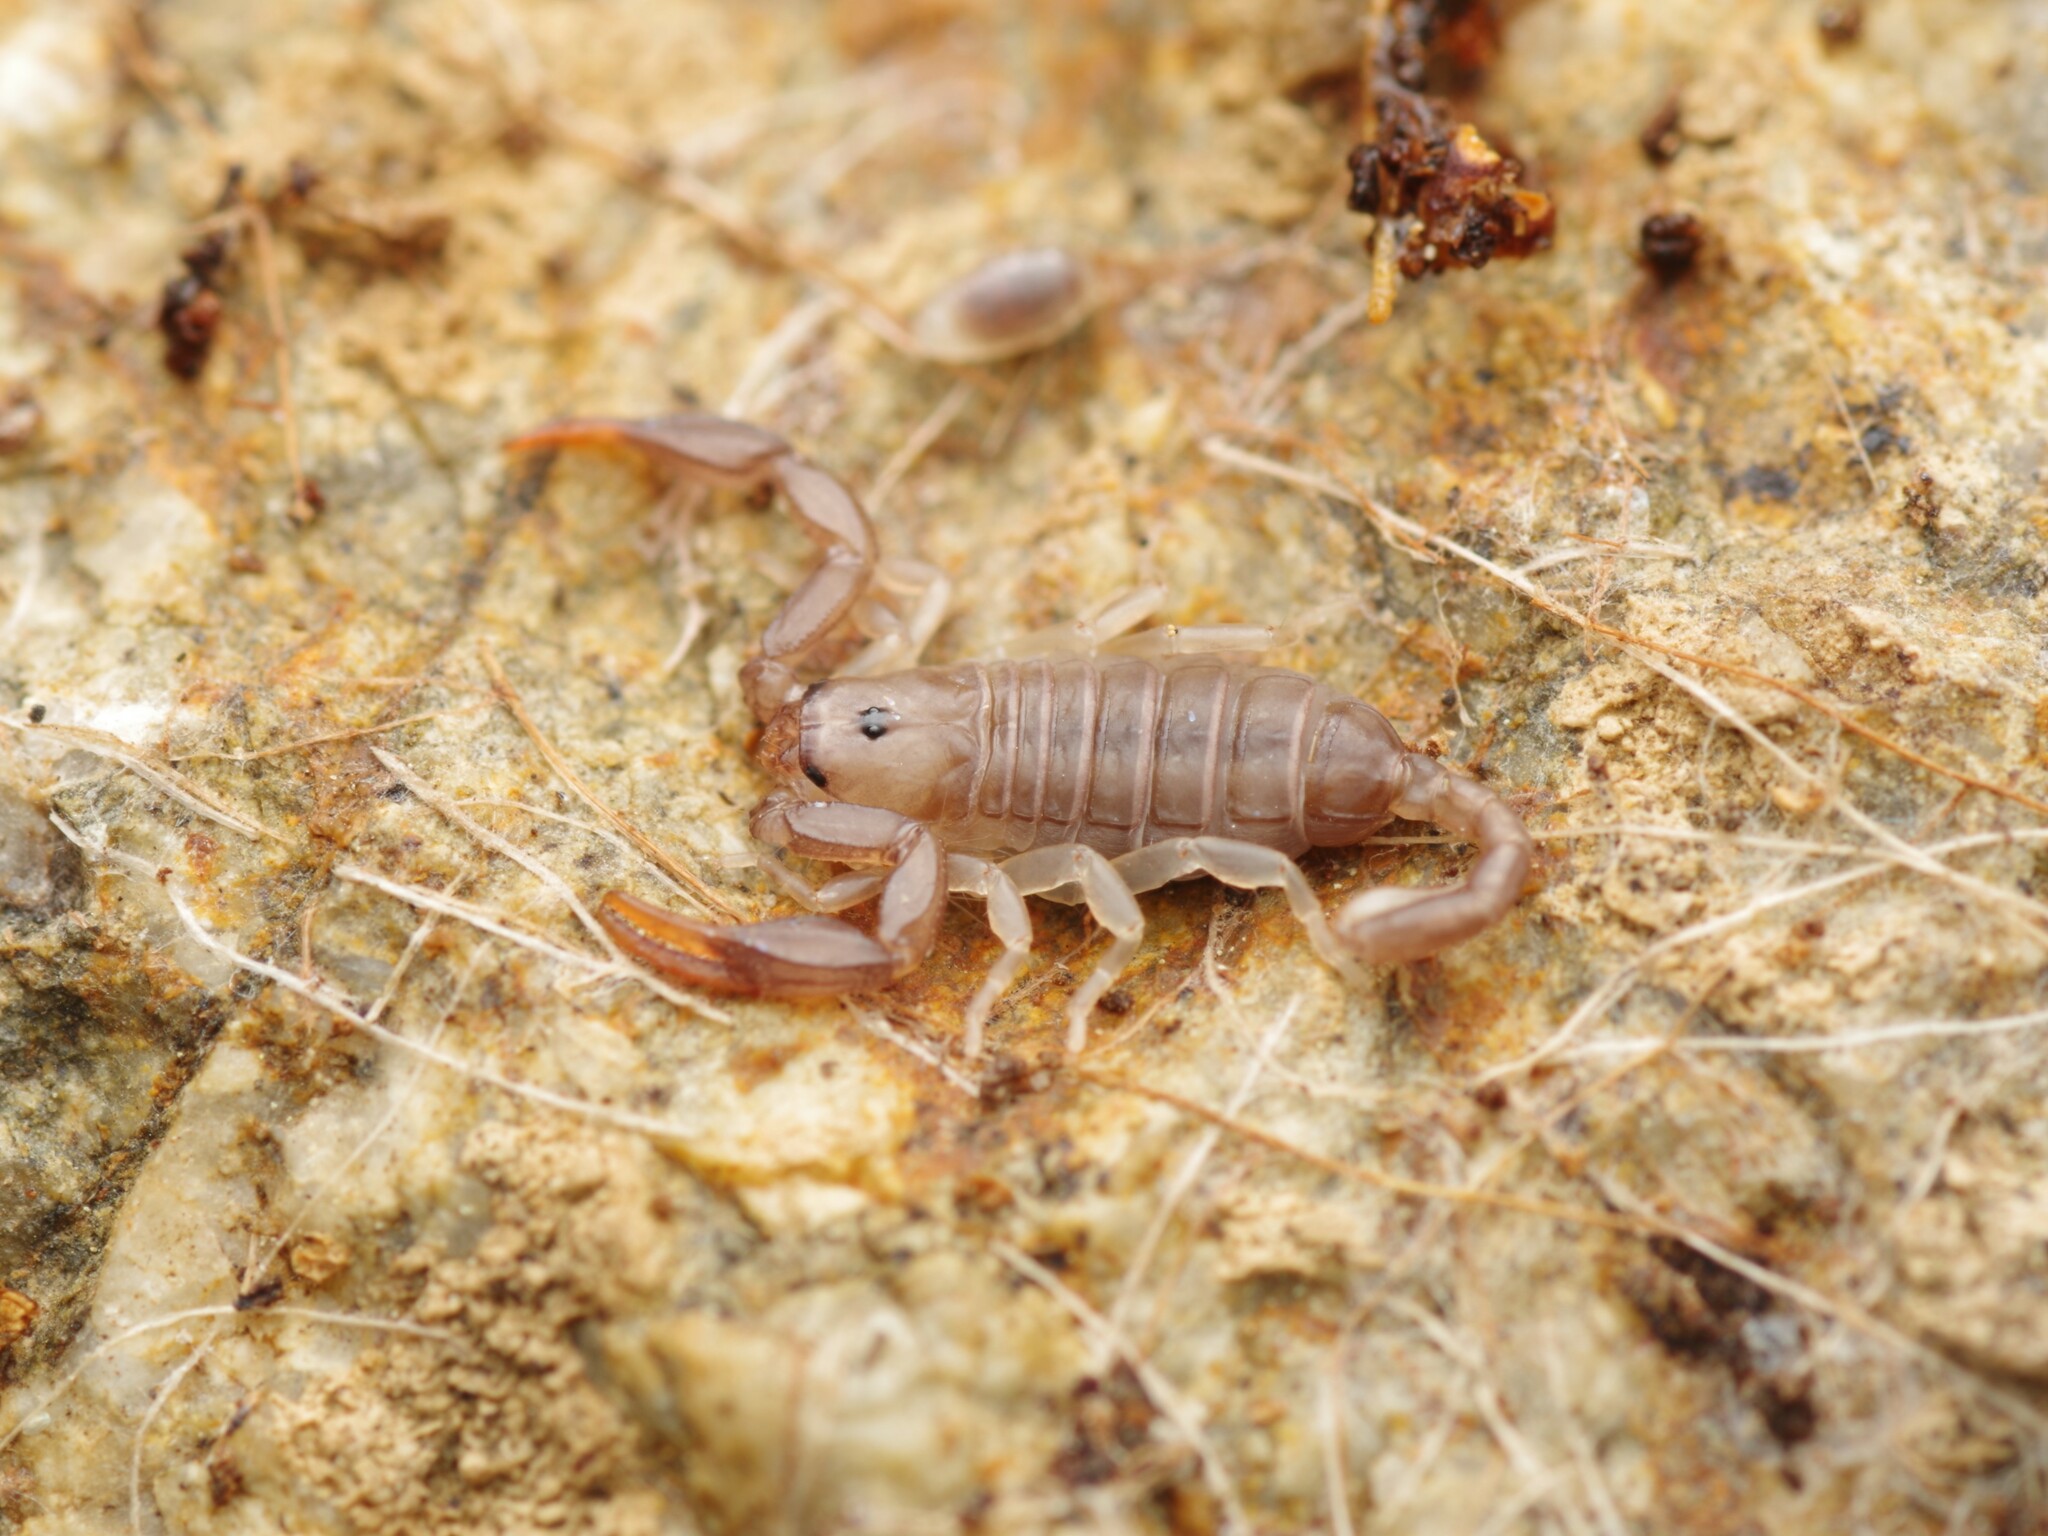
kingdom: Animalia
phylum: Arthropoda
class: Arachnida
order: Scorpiones
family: Euscorpiidae
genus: Euscorpius
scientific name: Euscorpius flavicaudis
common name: European yellow-tailed scorpion
